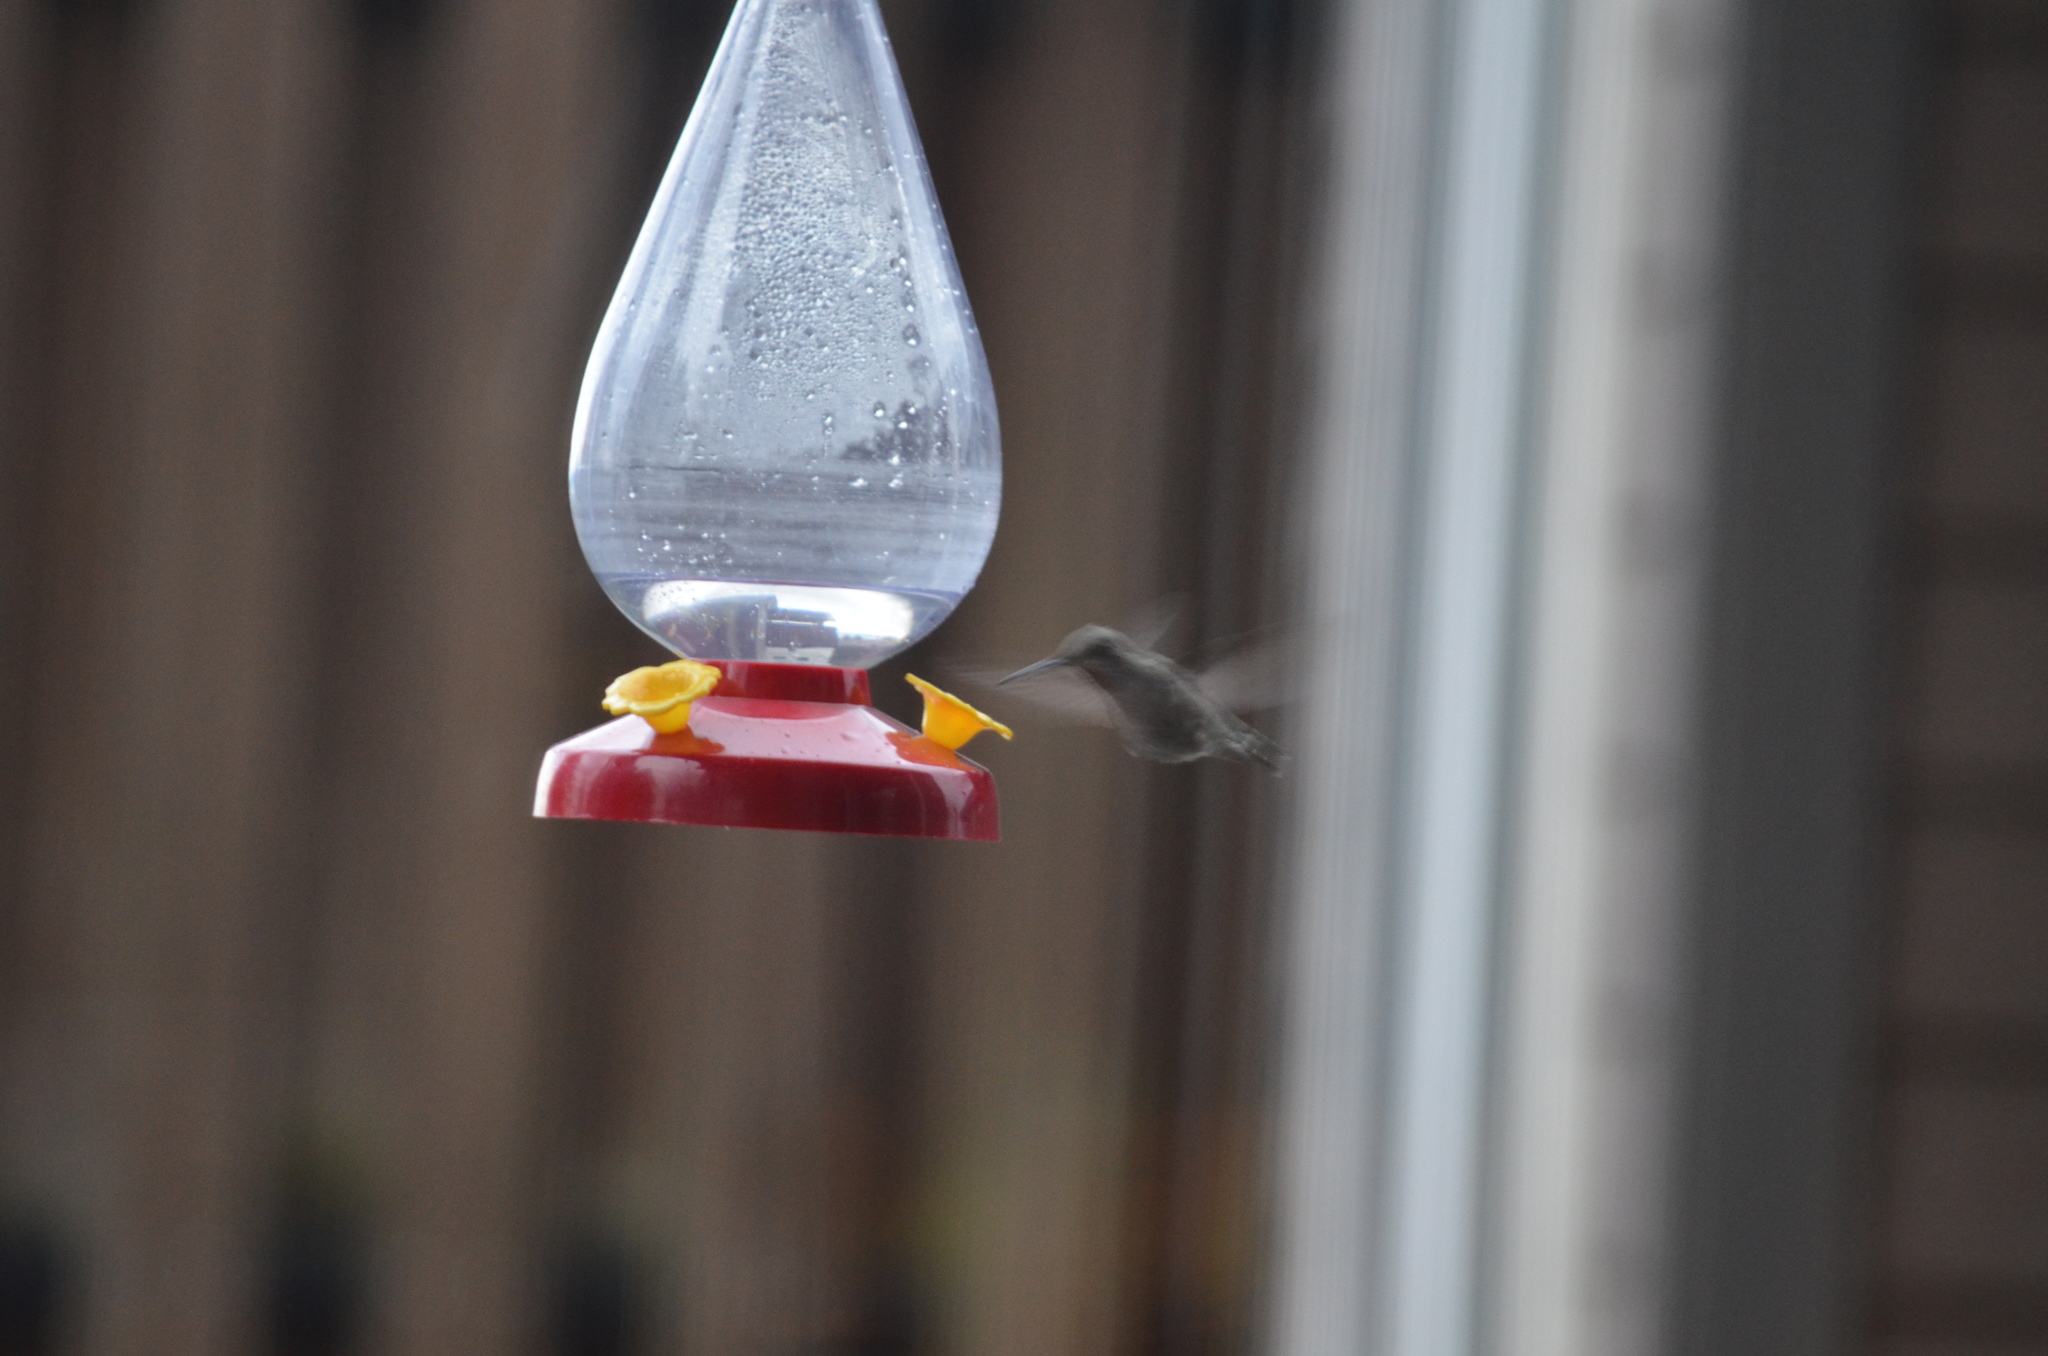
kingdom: Animalia
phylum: Chordata
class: Aves
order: Apodiformes
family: Trochilidae
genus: Calypte
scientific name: Calypte anna
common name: Anna's hummingbird
